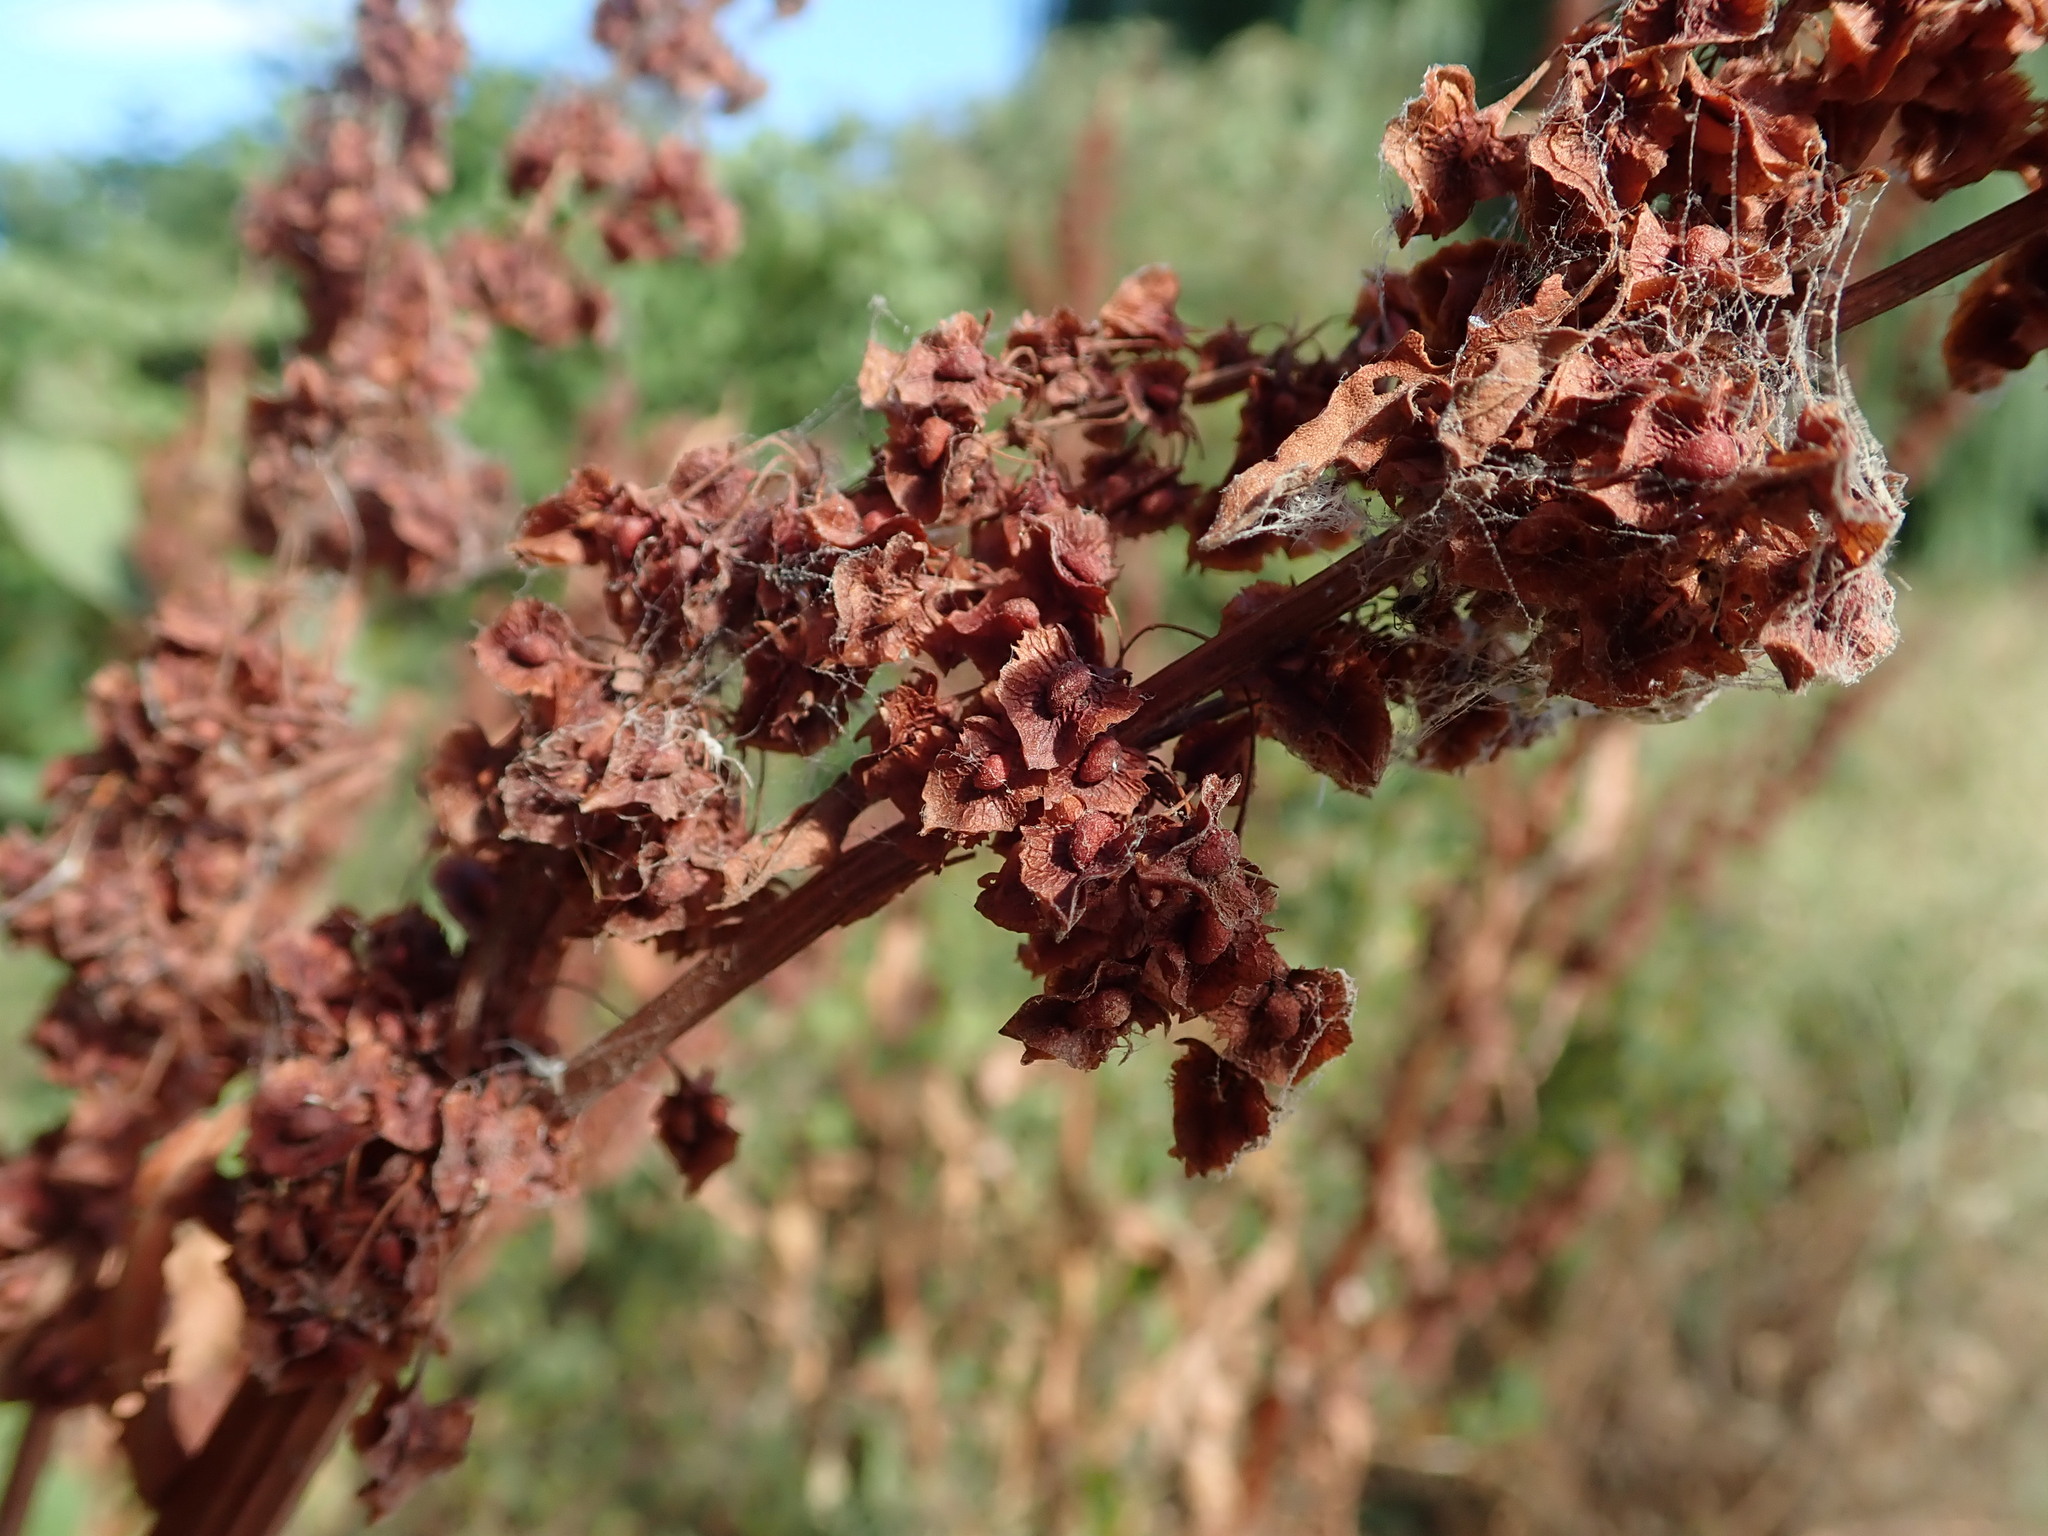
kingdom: Plantae
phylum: Tracheophyta
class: Magnoliopsida
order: Caryophyllales
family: Polygonaceae
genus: Rumex
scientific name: Rumex cristatus
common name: Greek dock
